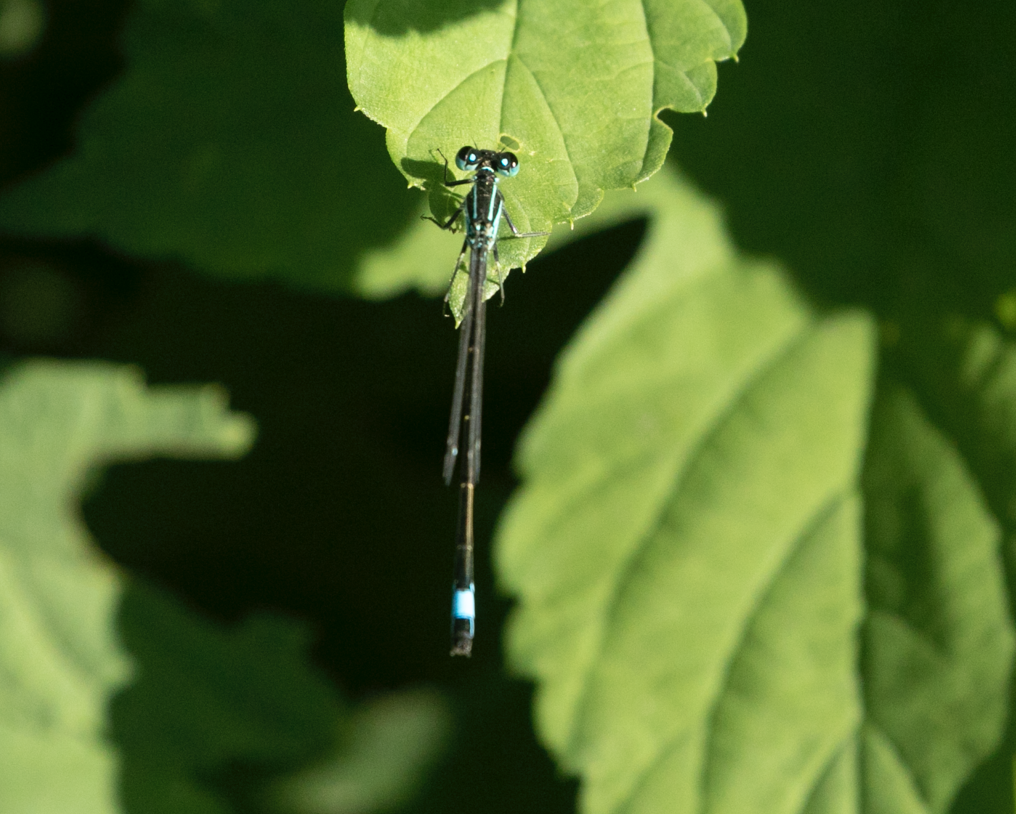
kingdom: Animalia
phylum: Arthropoda
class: Insecta
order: Odonata
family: Coenagrionidae
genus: Ischnura
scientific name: Ischnura elegans
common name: Blue-tailed damselfly
